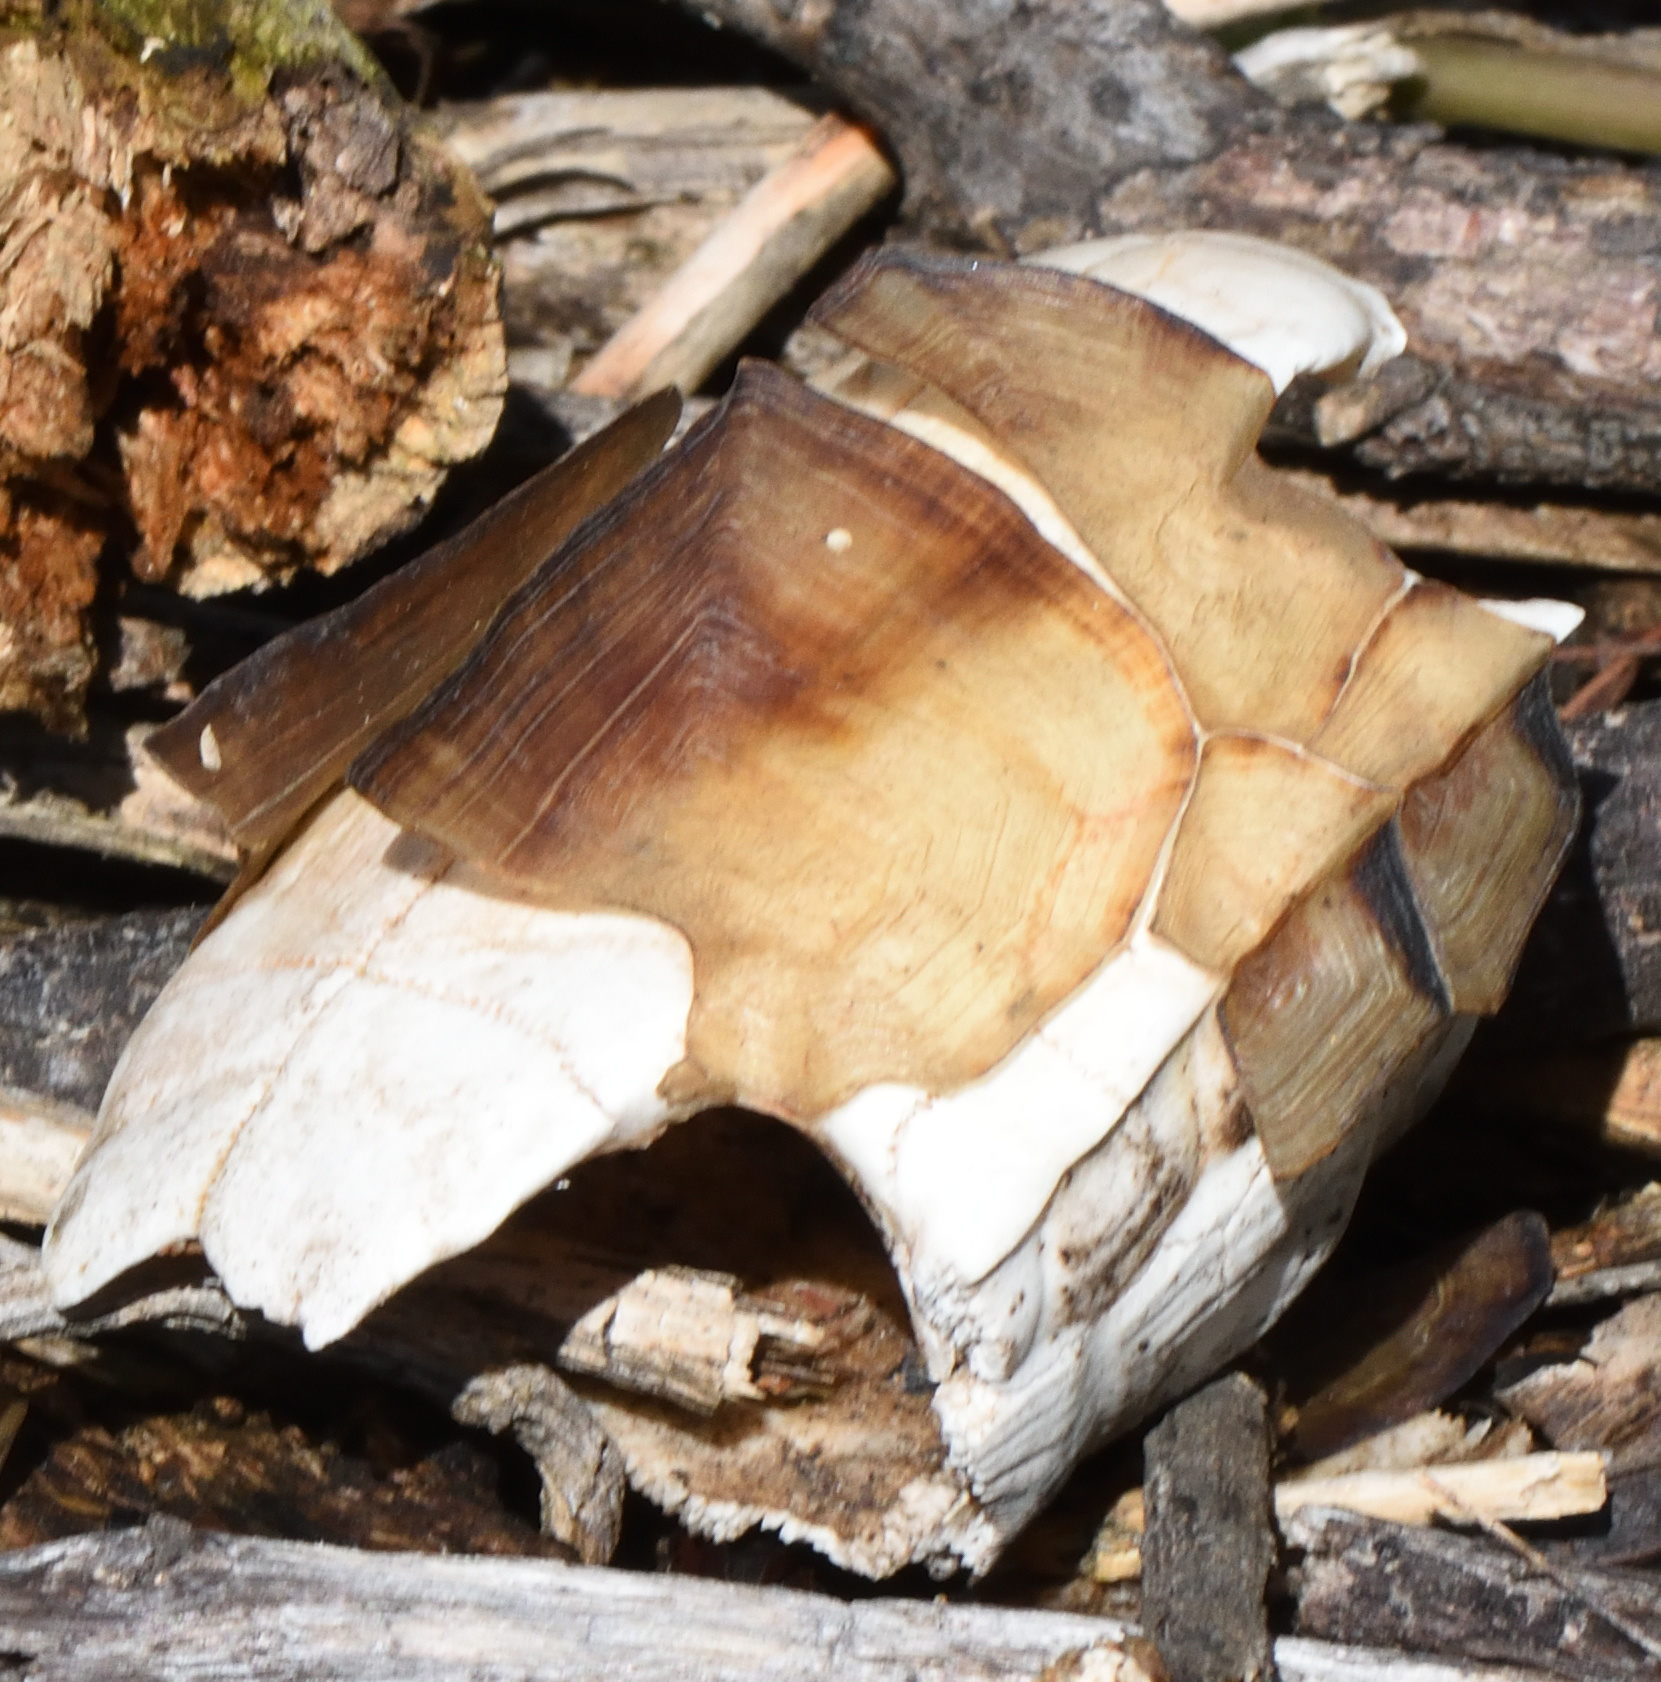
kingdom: Animalia
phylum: Chordata
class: Testudines
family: Testudinidae
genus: Chersina
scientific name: Chersina angulata
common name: South african bowsprit tortoise
